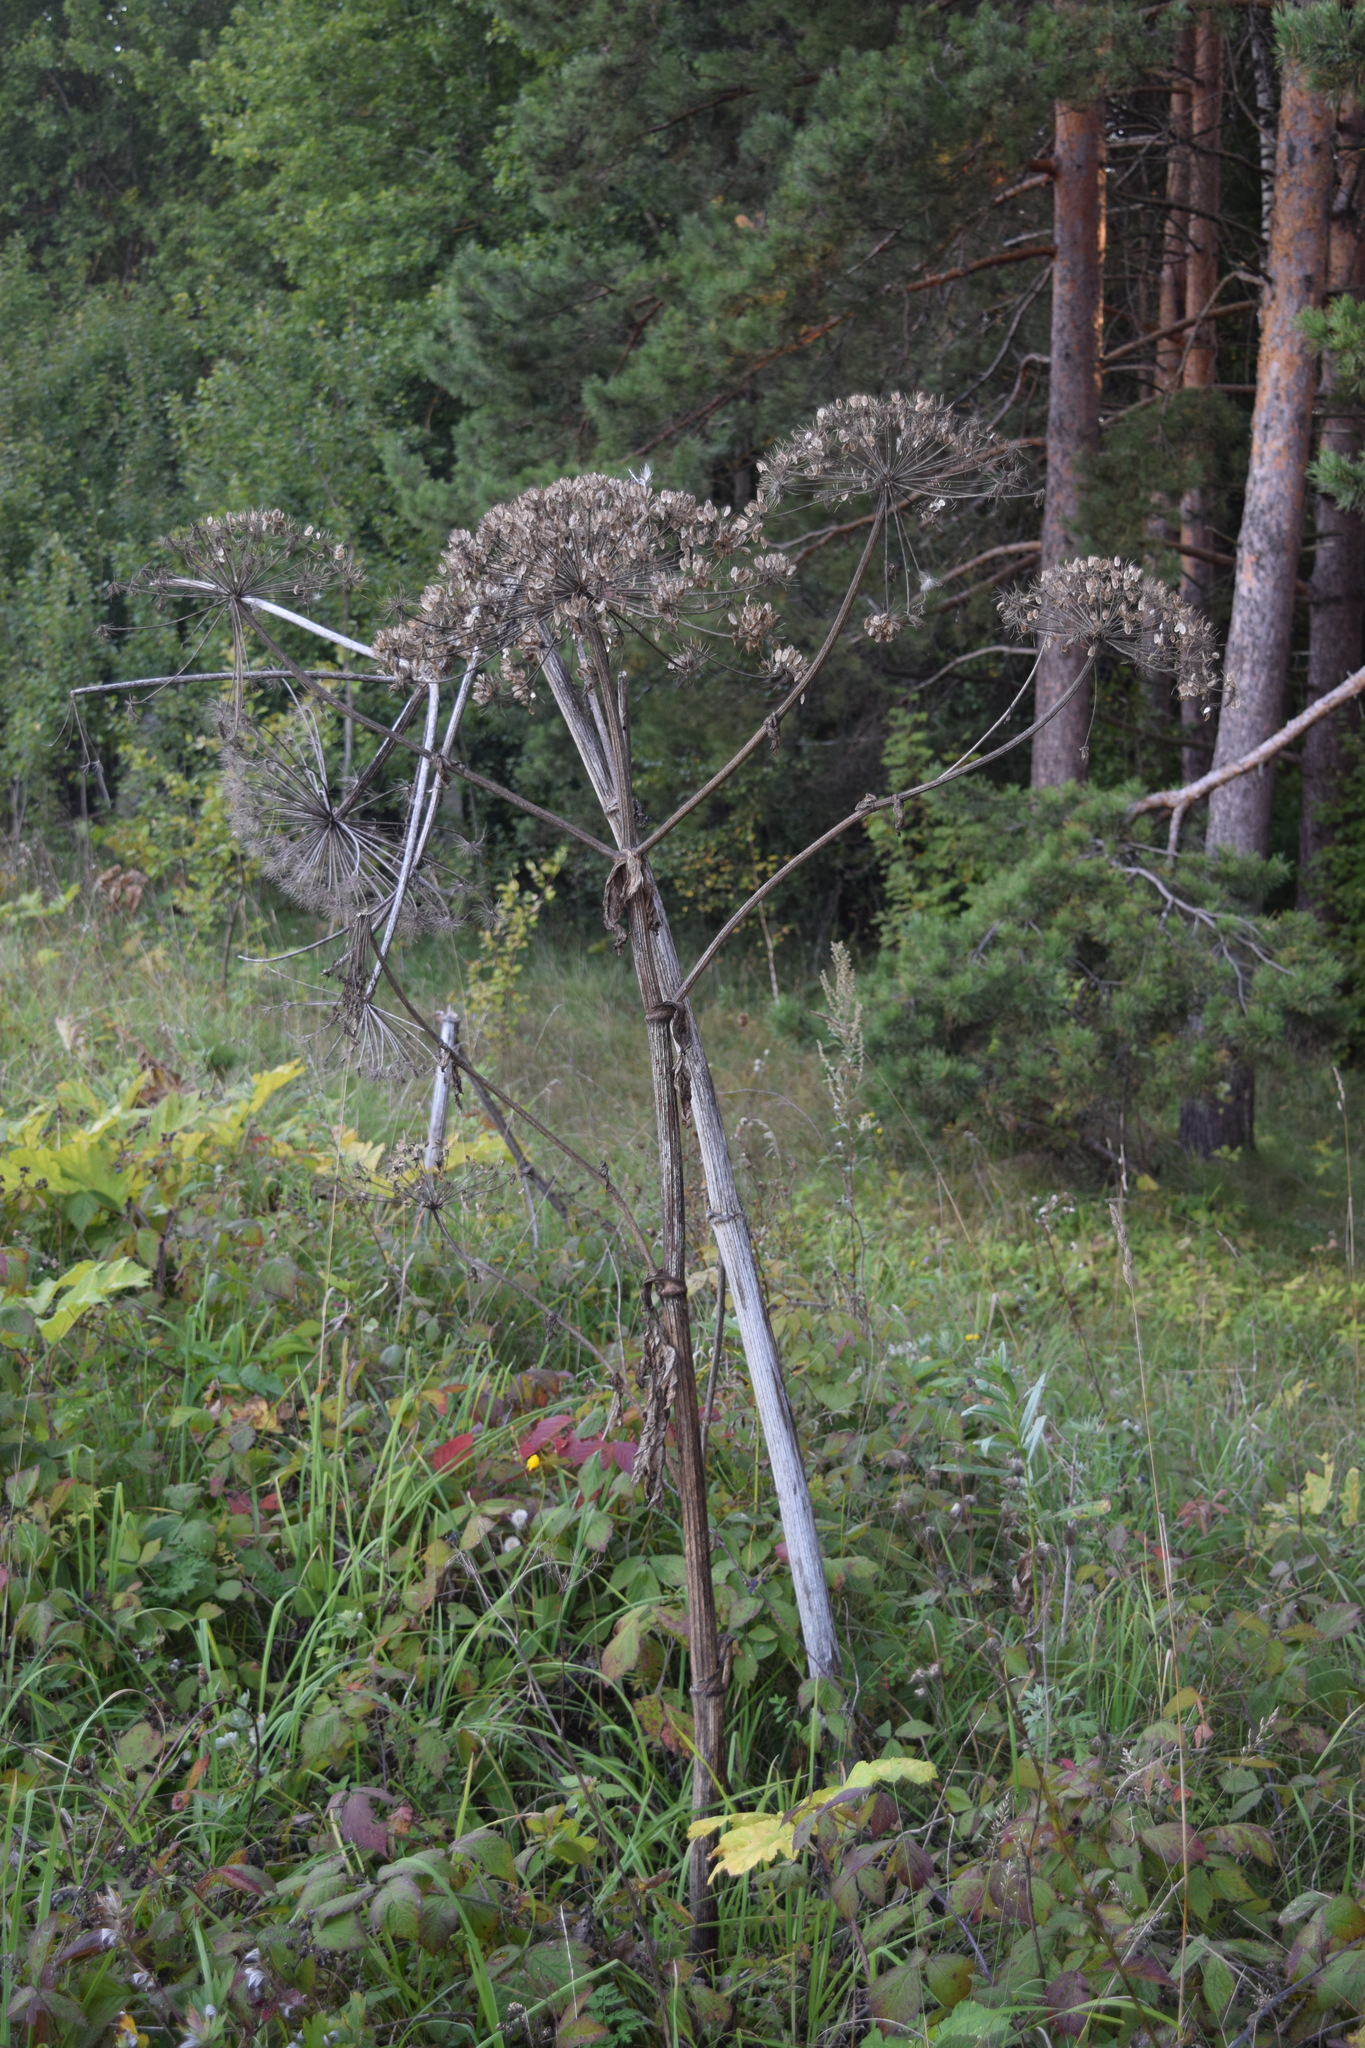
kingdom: Plantae
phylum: Tracheophyta
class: Magnoliopsida
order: Apiales
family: Apiaceae
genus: Heracleum
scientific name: Heracleum sosnowskyi
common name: Sosnowsky's hogweed
